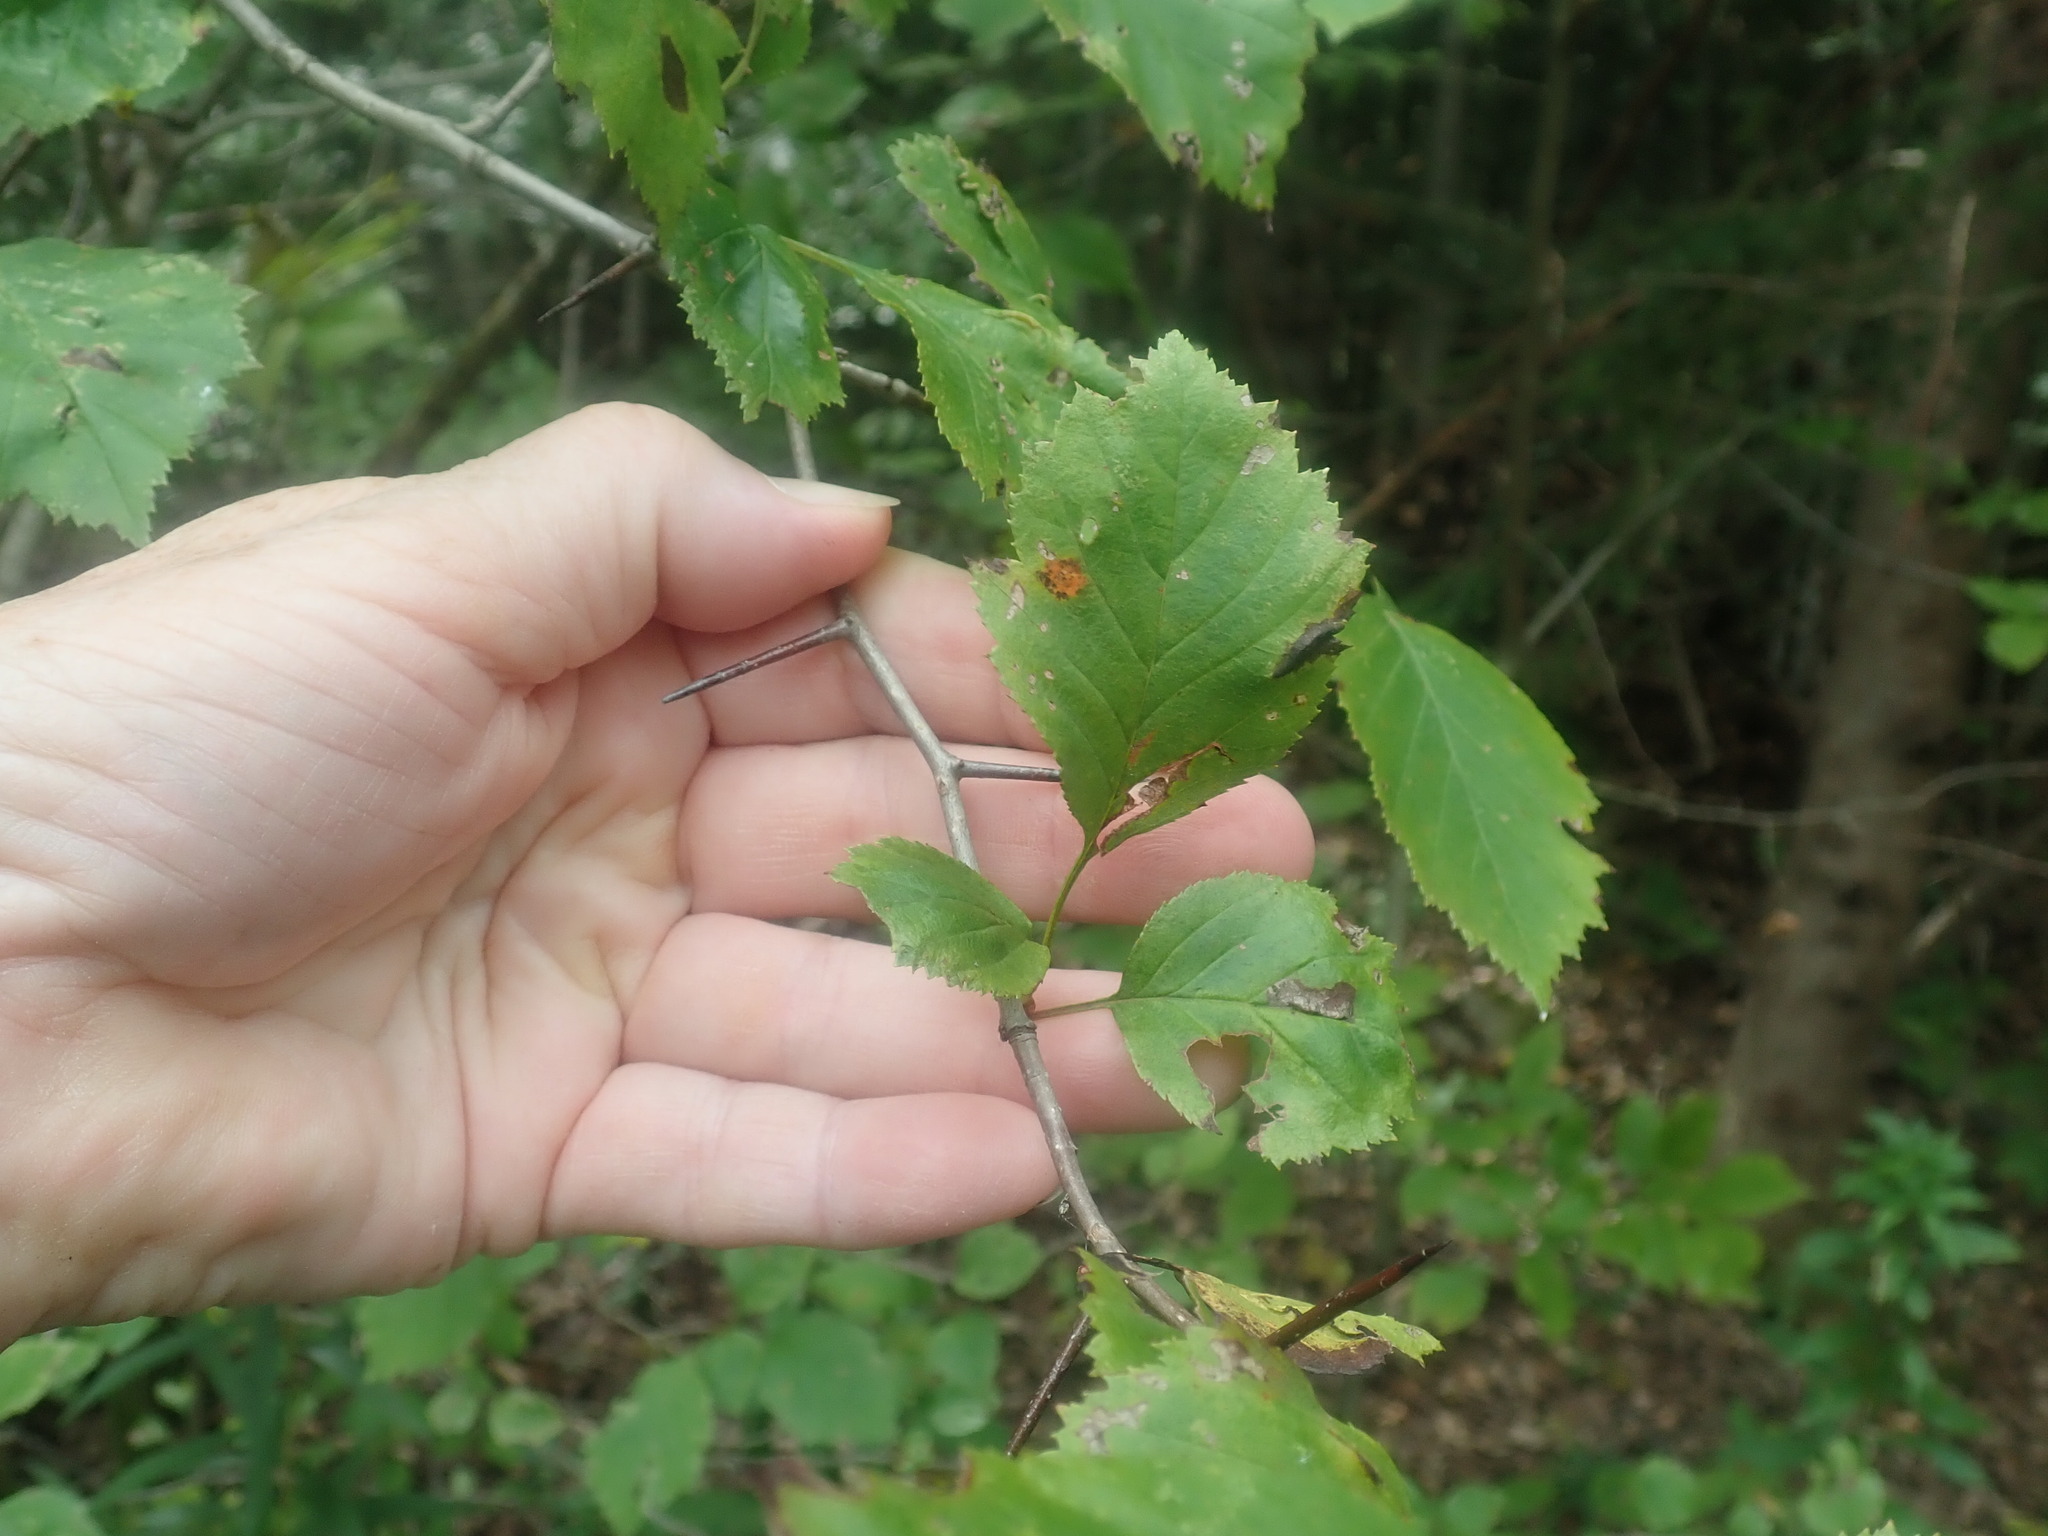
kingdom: Plantae
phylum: Tracheophyta
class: Magnoliopsida
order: Rosales
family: Rosaceae
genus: Crataegus
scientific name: Crataegus
